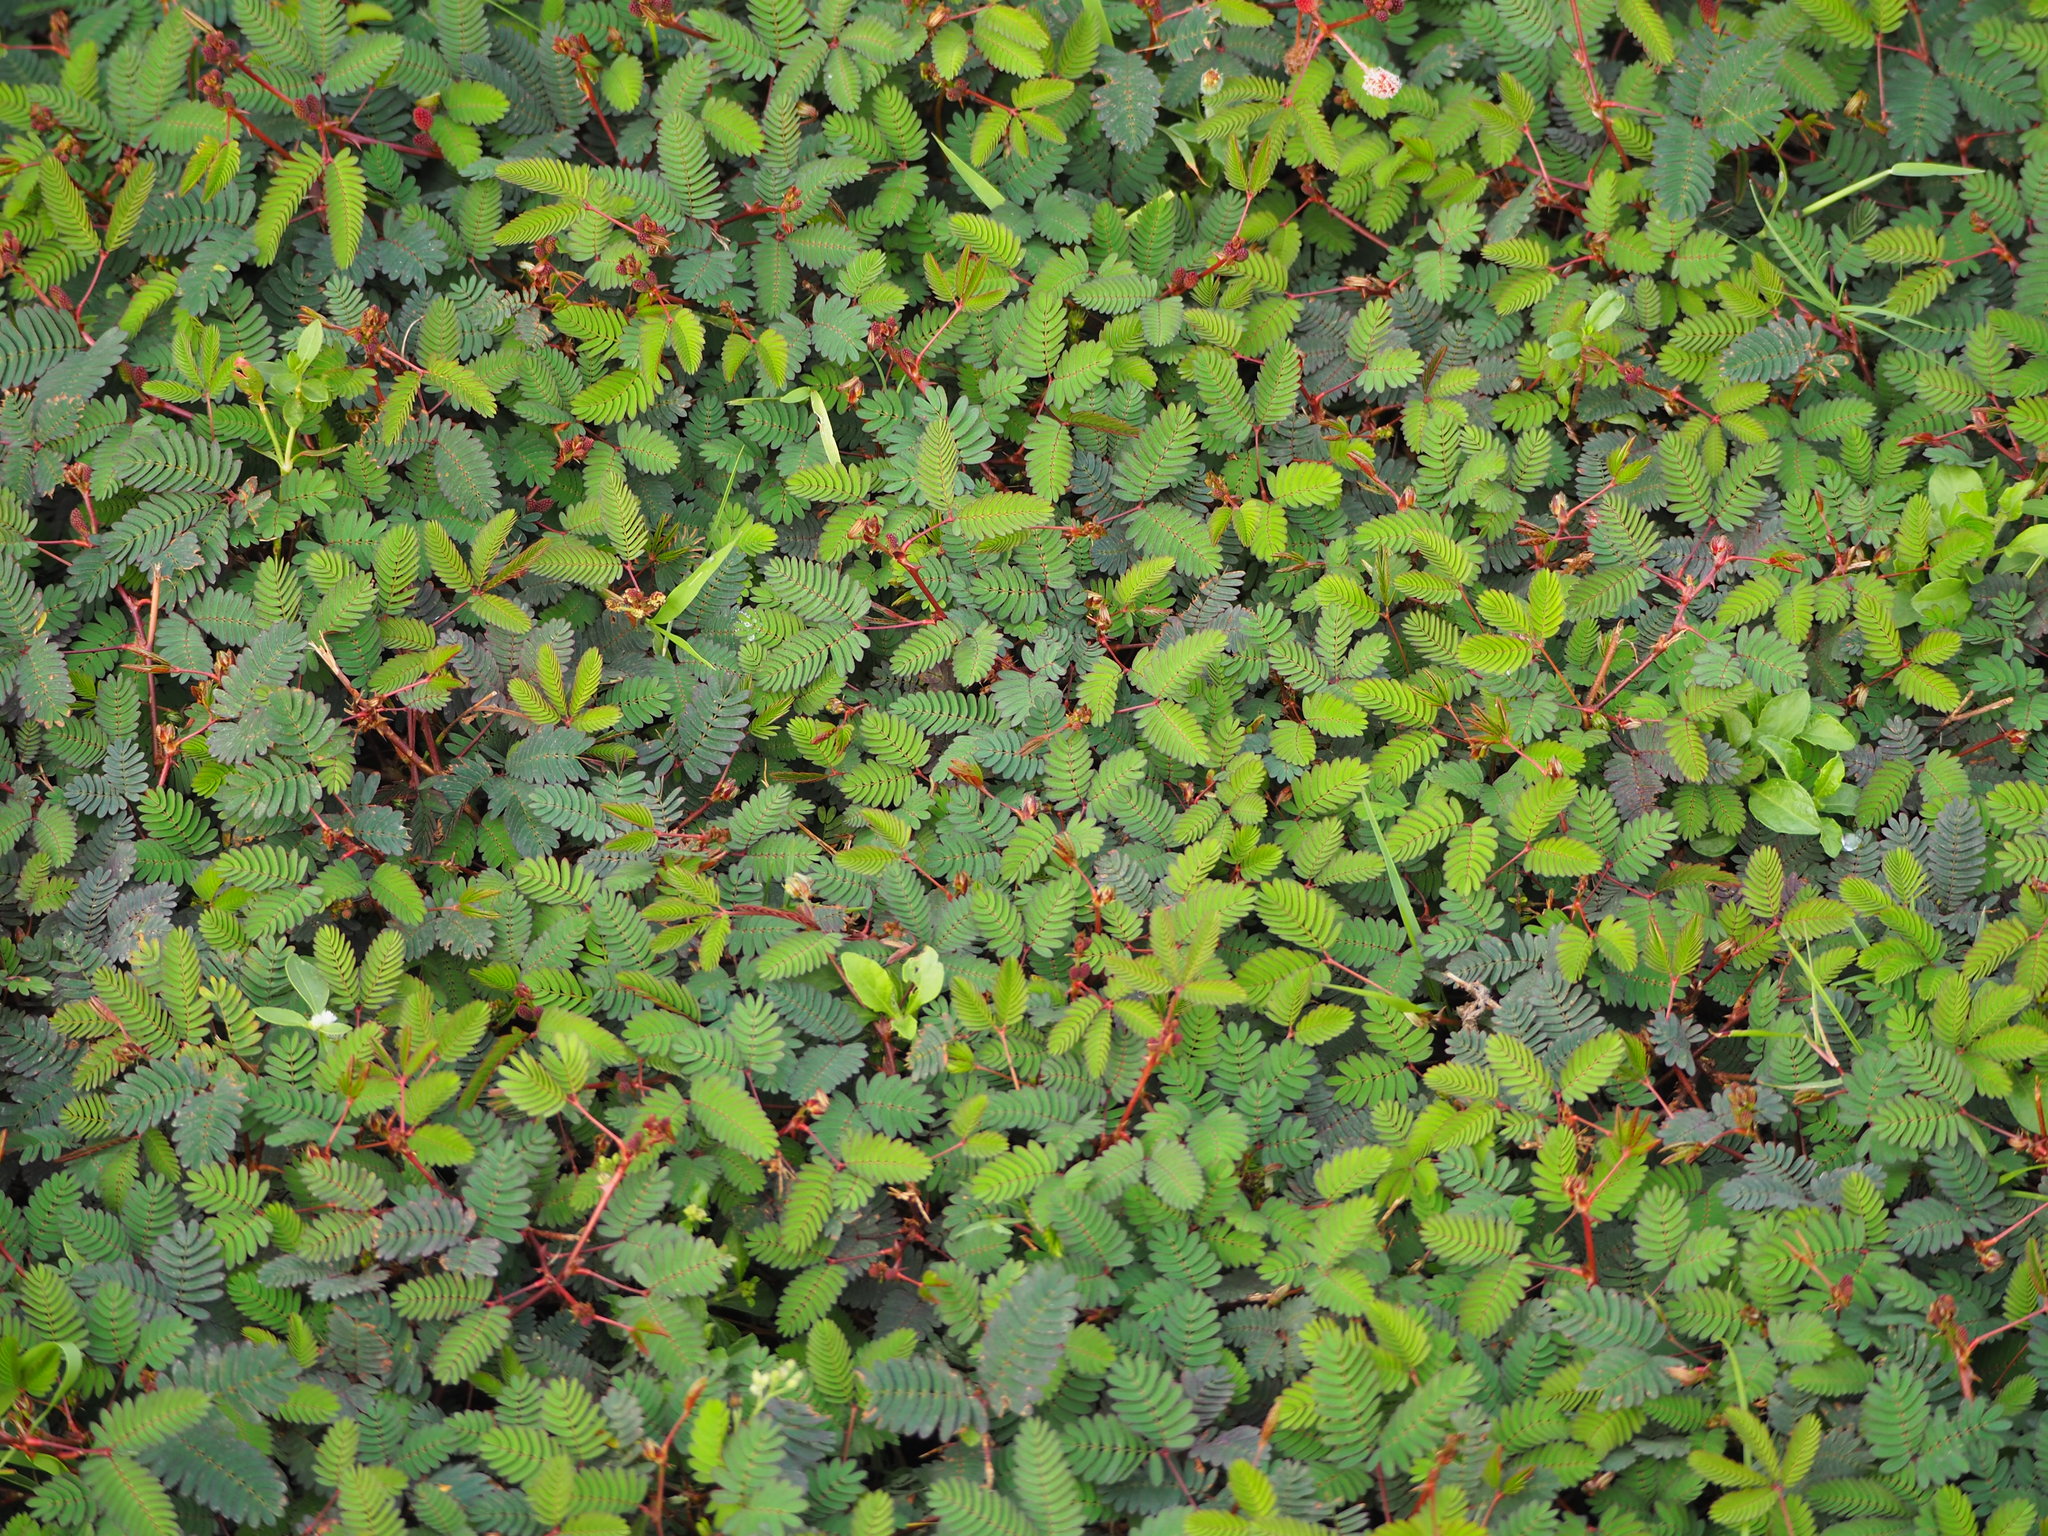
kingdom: Plantae
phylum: Tracheophyta
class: Magnoliopsida
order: Fabales
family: Fabaceae
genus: Mimosa
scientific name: Mimosa pudica
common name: Sensitive plant
